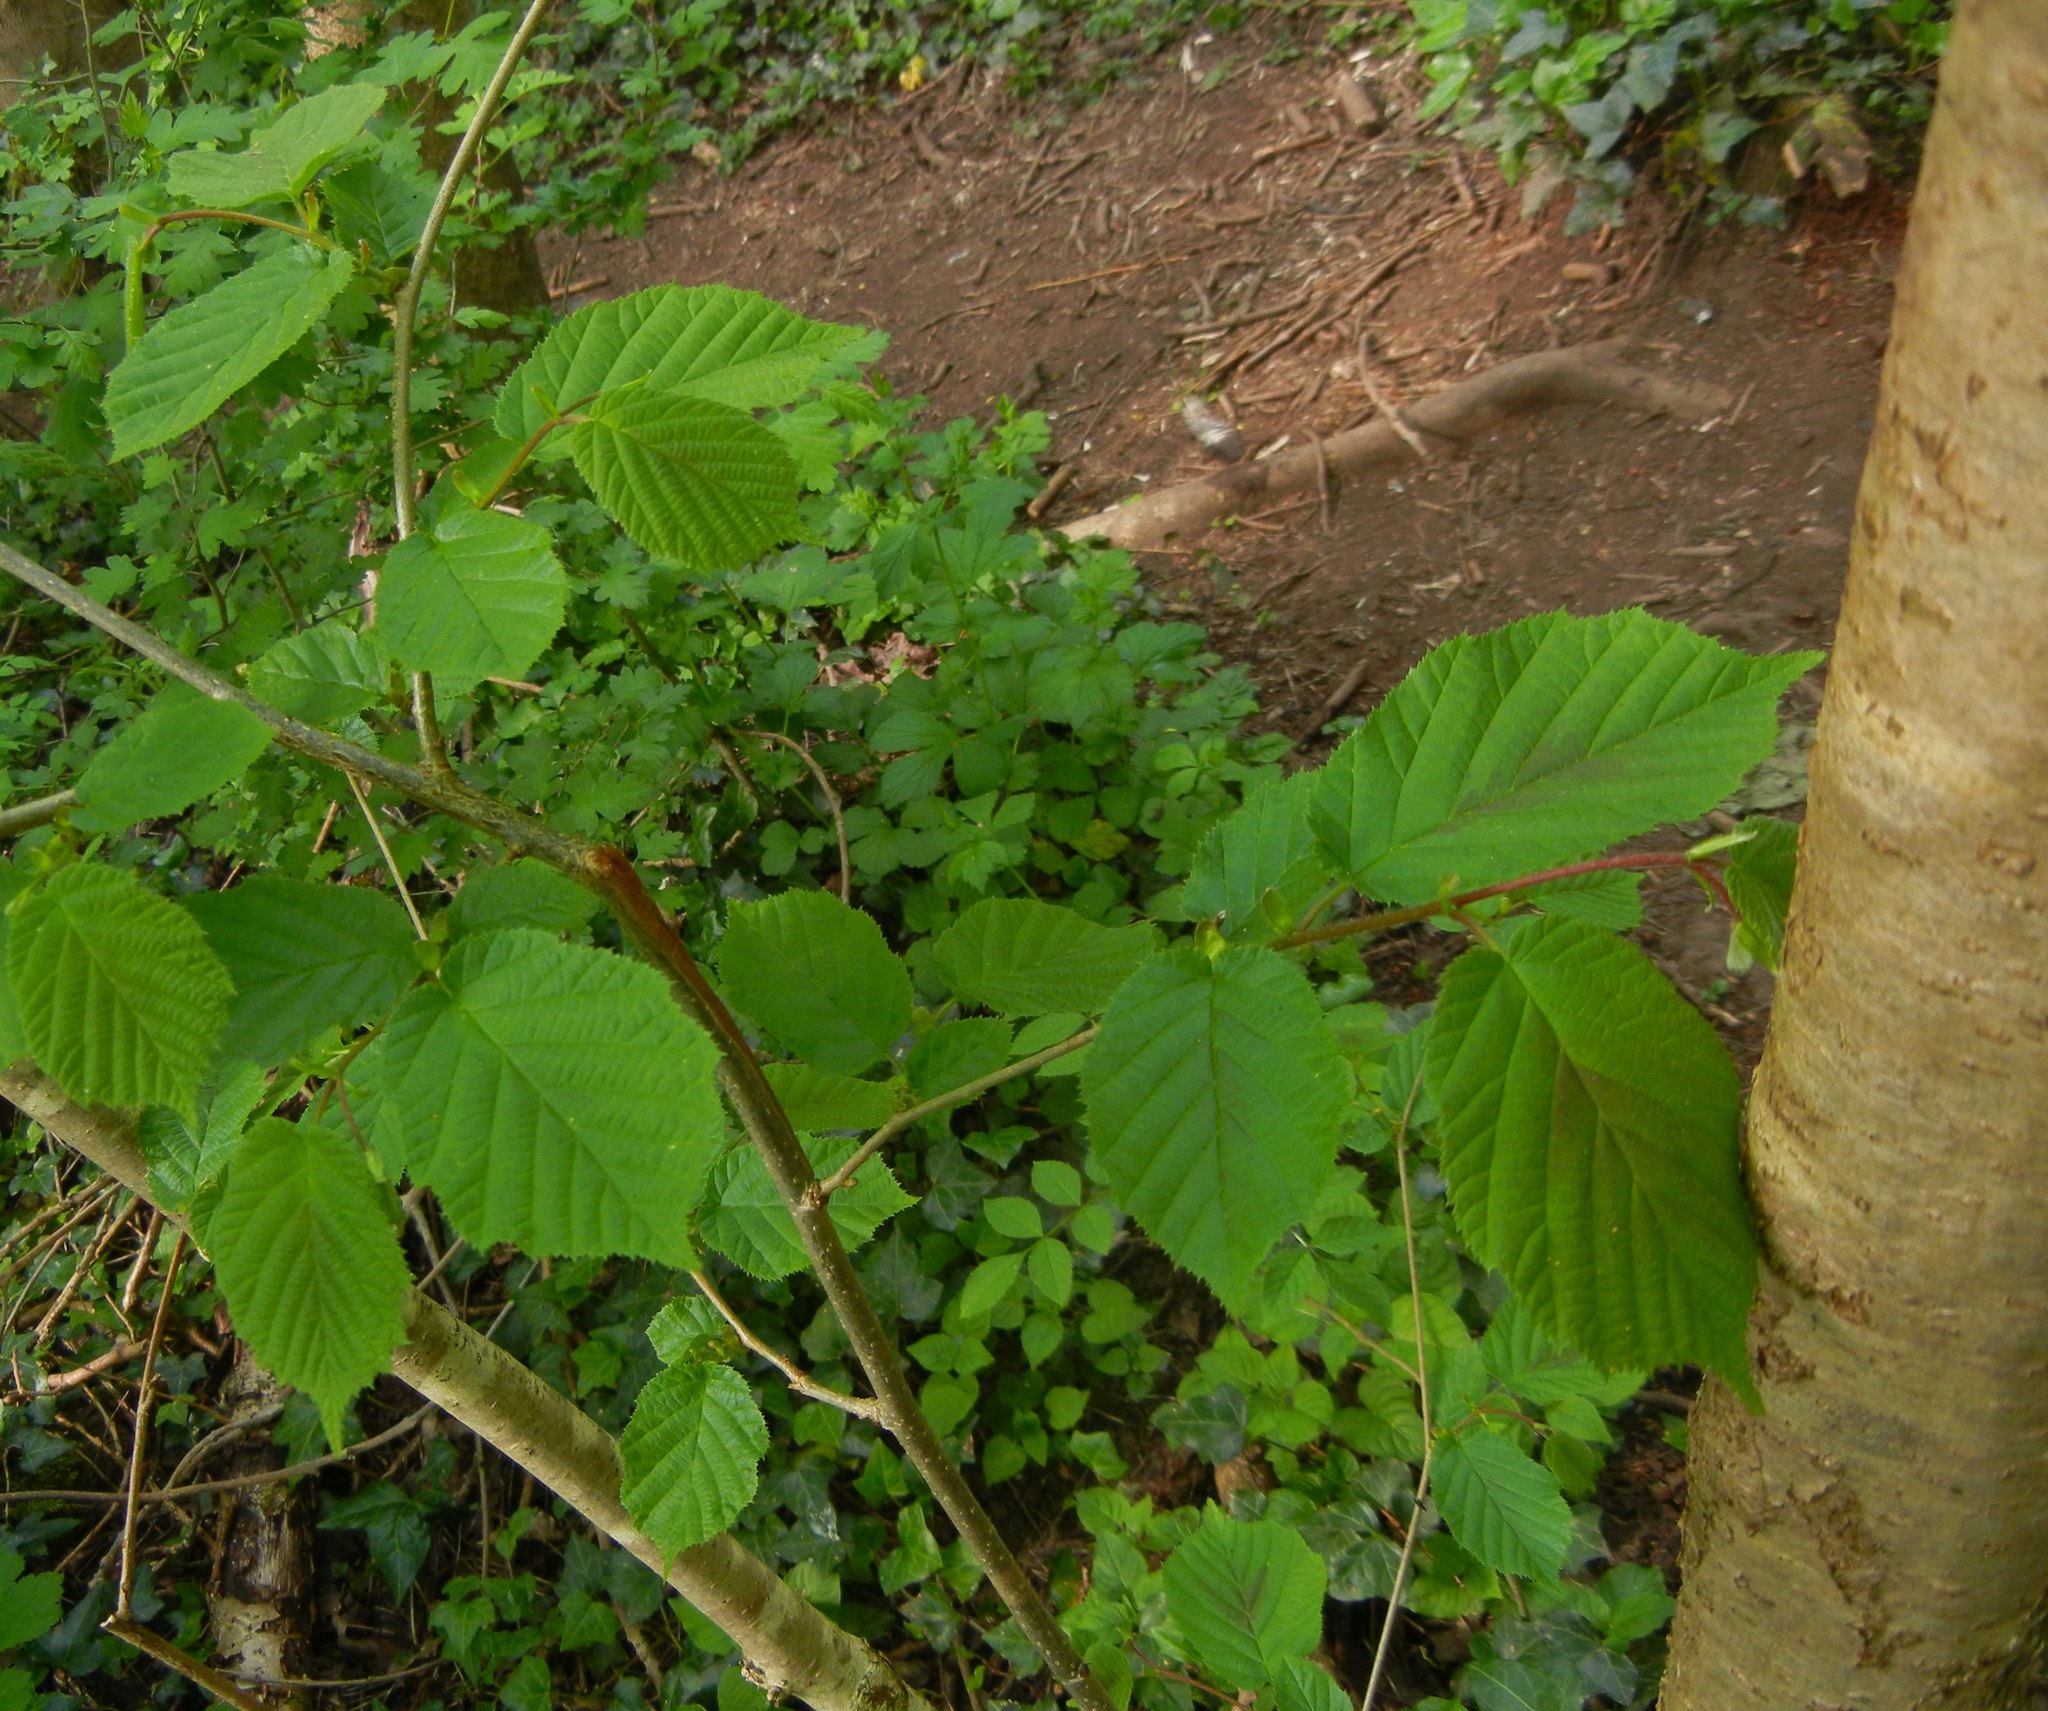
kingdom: Plantae
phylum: Tracheophyta
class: Magnoliopsida
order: Fagales
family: Betulaceae
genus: Corylus
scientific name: Corylus avellana
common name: European hazel
